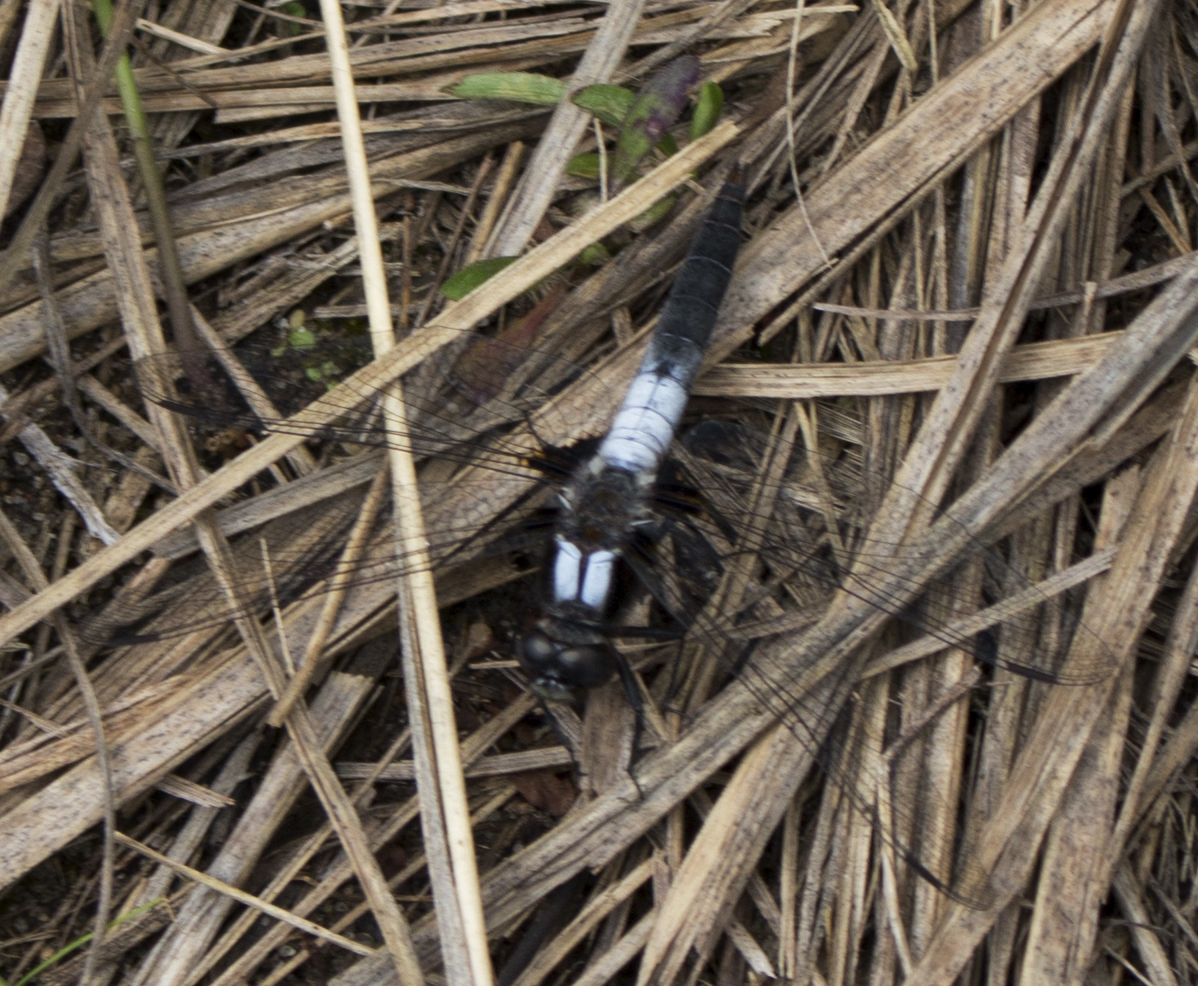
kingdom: Animalia
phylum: Arthropoda
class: Insecta
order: Odonata
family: Libellulidae
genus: Ladona
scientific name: Ladona julia
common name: Chalk-fronted corporal
